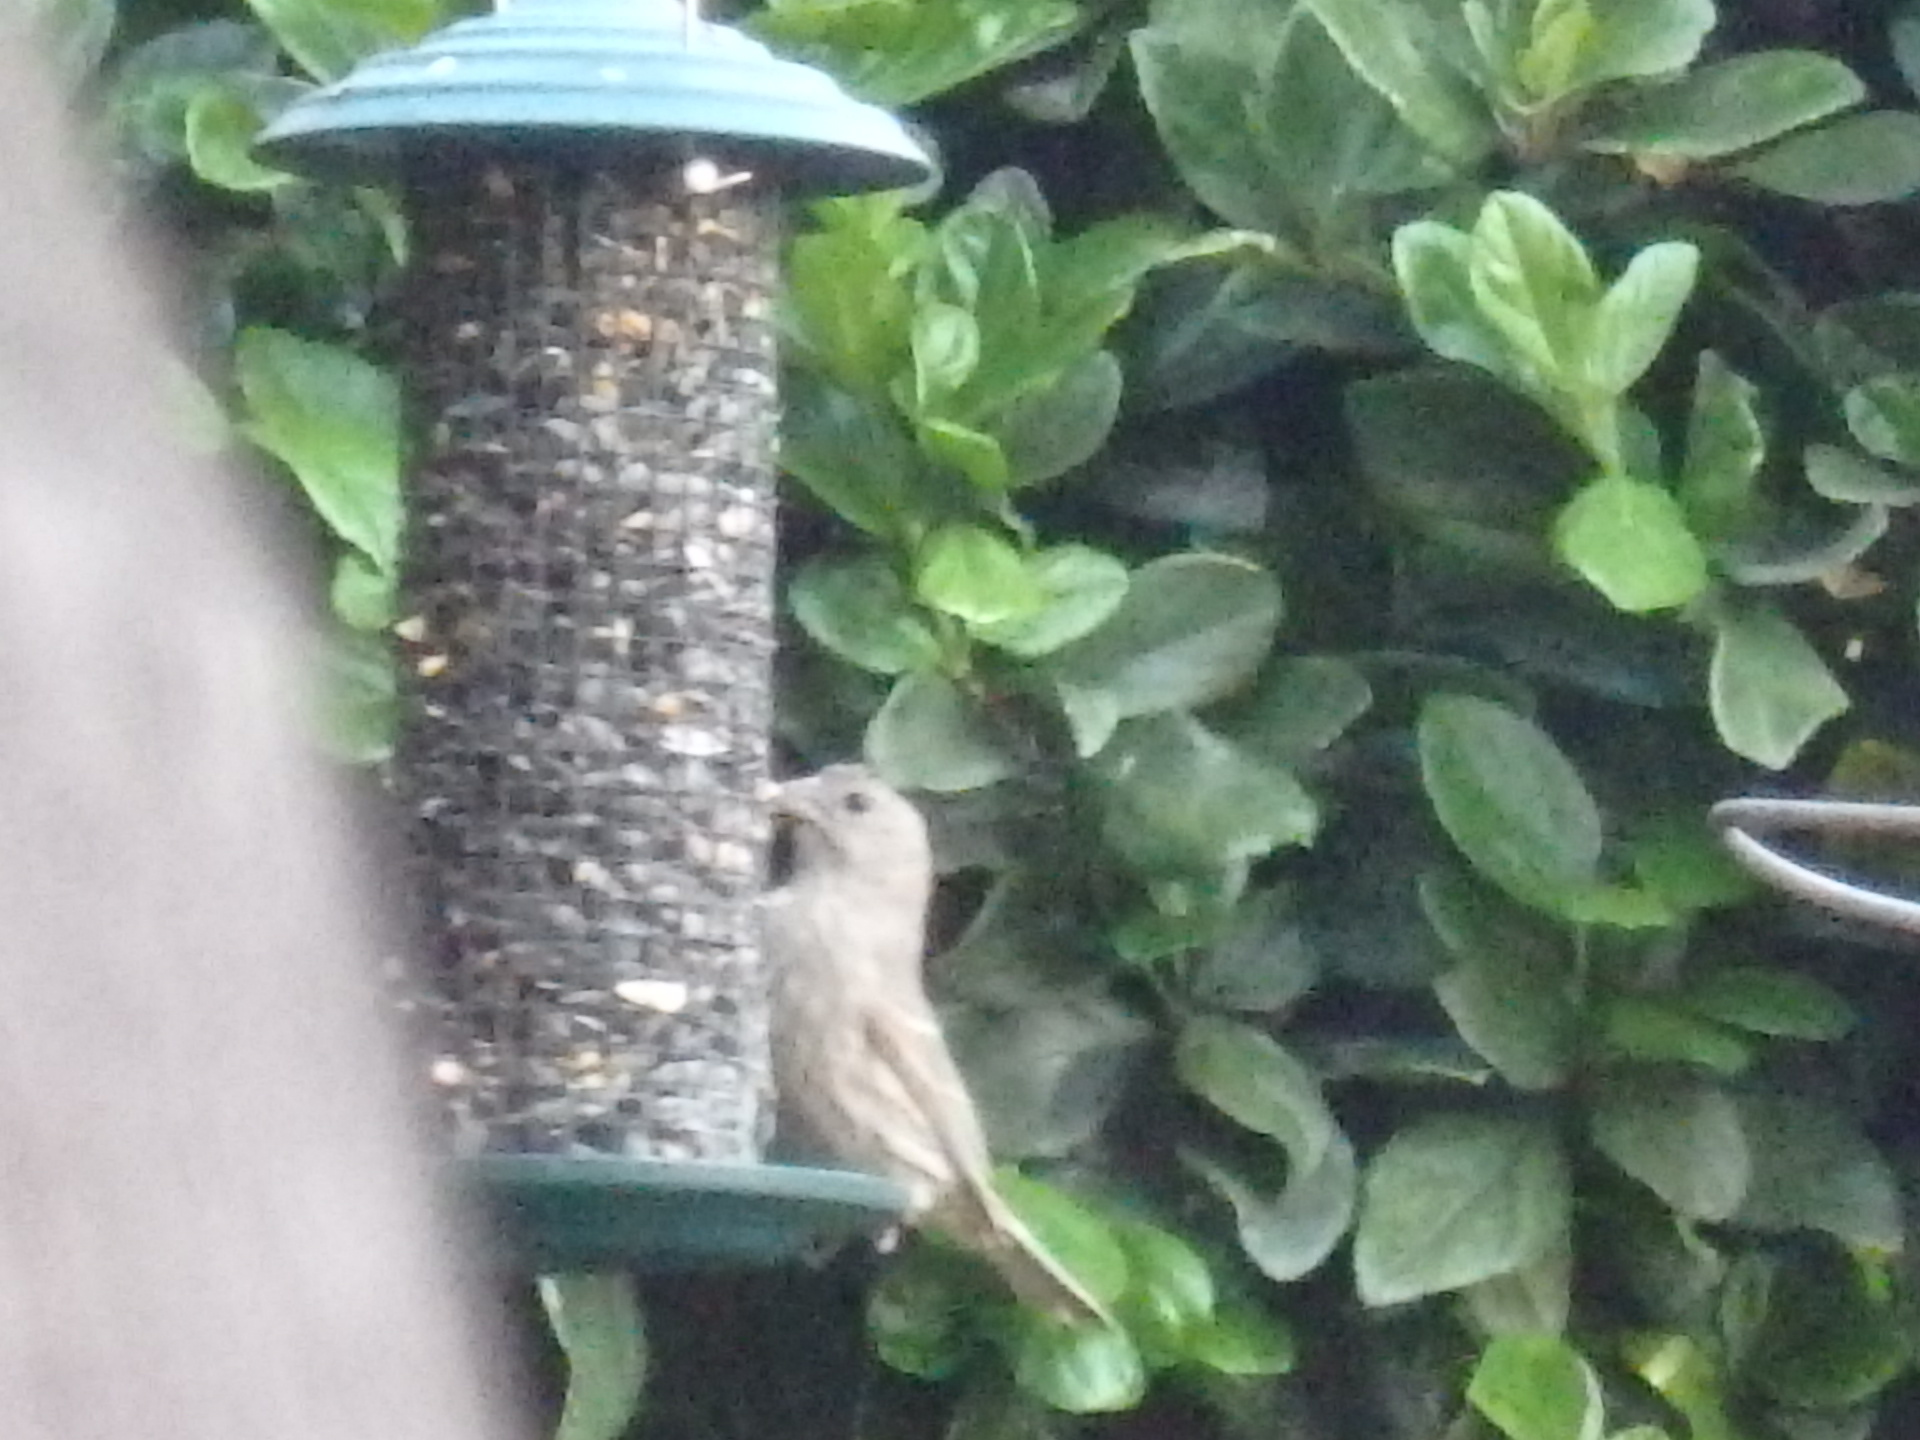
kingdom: Animalia
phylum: Chordata
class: Aves
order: Passeriformes
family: Fringillidae
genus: Haemorhous
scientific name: Haemorhous mexicanus
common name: House finch
